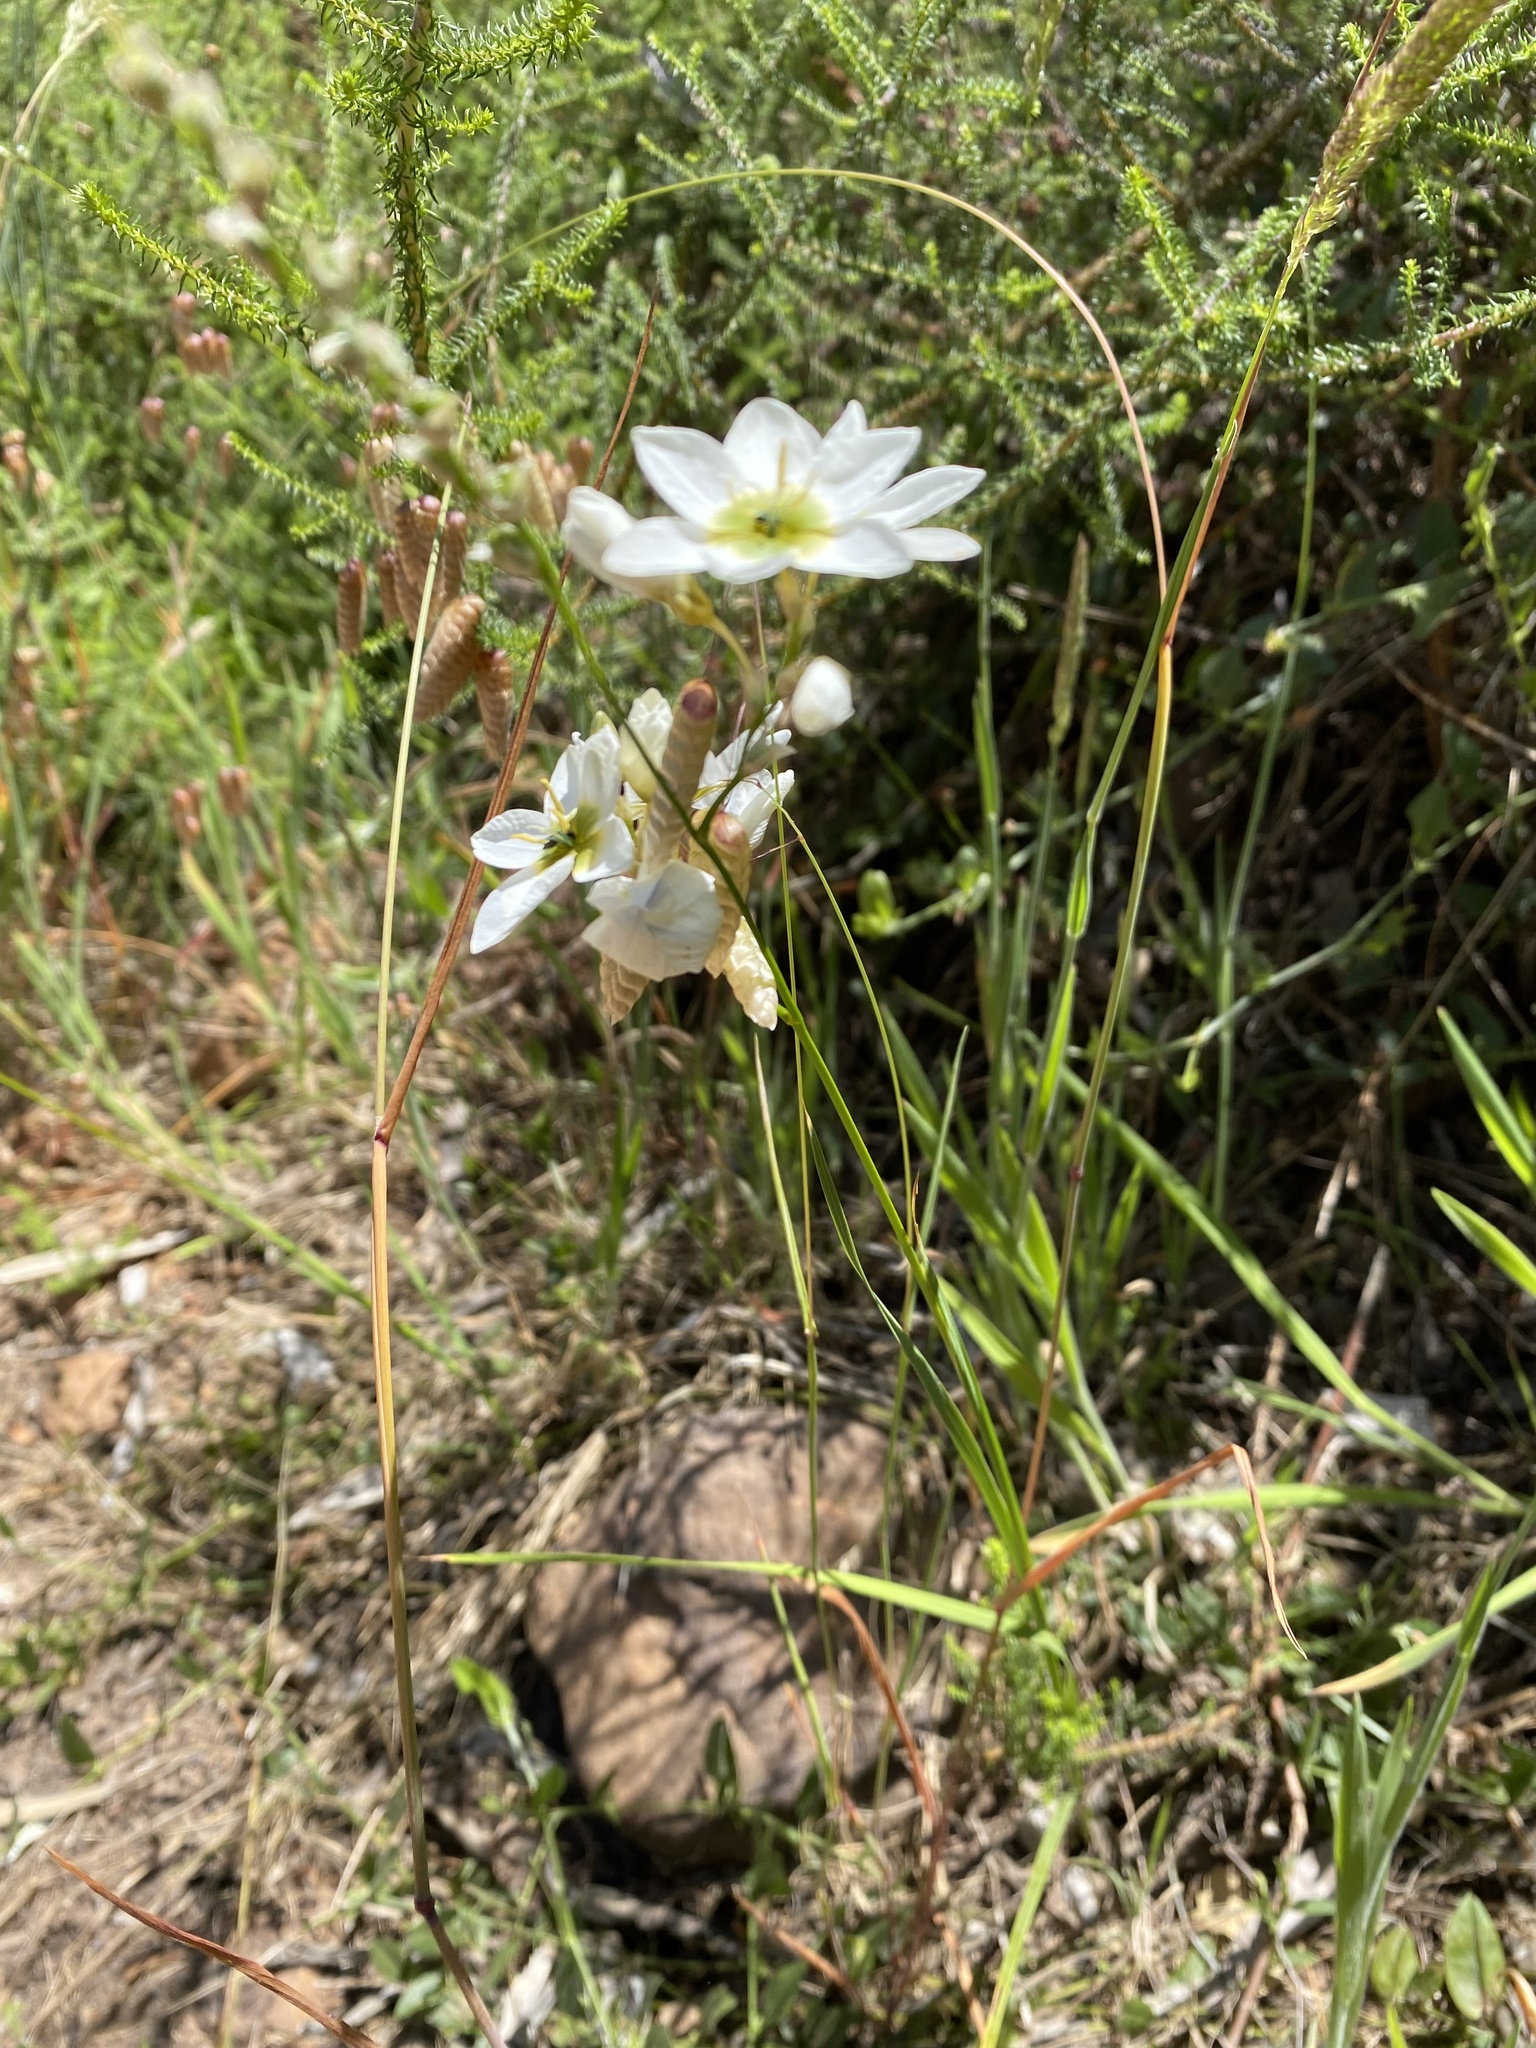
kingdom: Plantae
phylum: Tracheophyta
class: Liliopsida
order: Asparagales
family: Iridaceae
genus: Ixia
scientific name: Ixia polystachya
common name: White-and-yellow-flower cornlily
